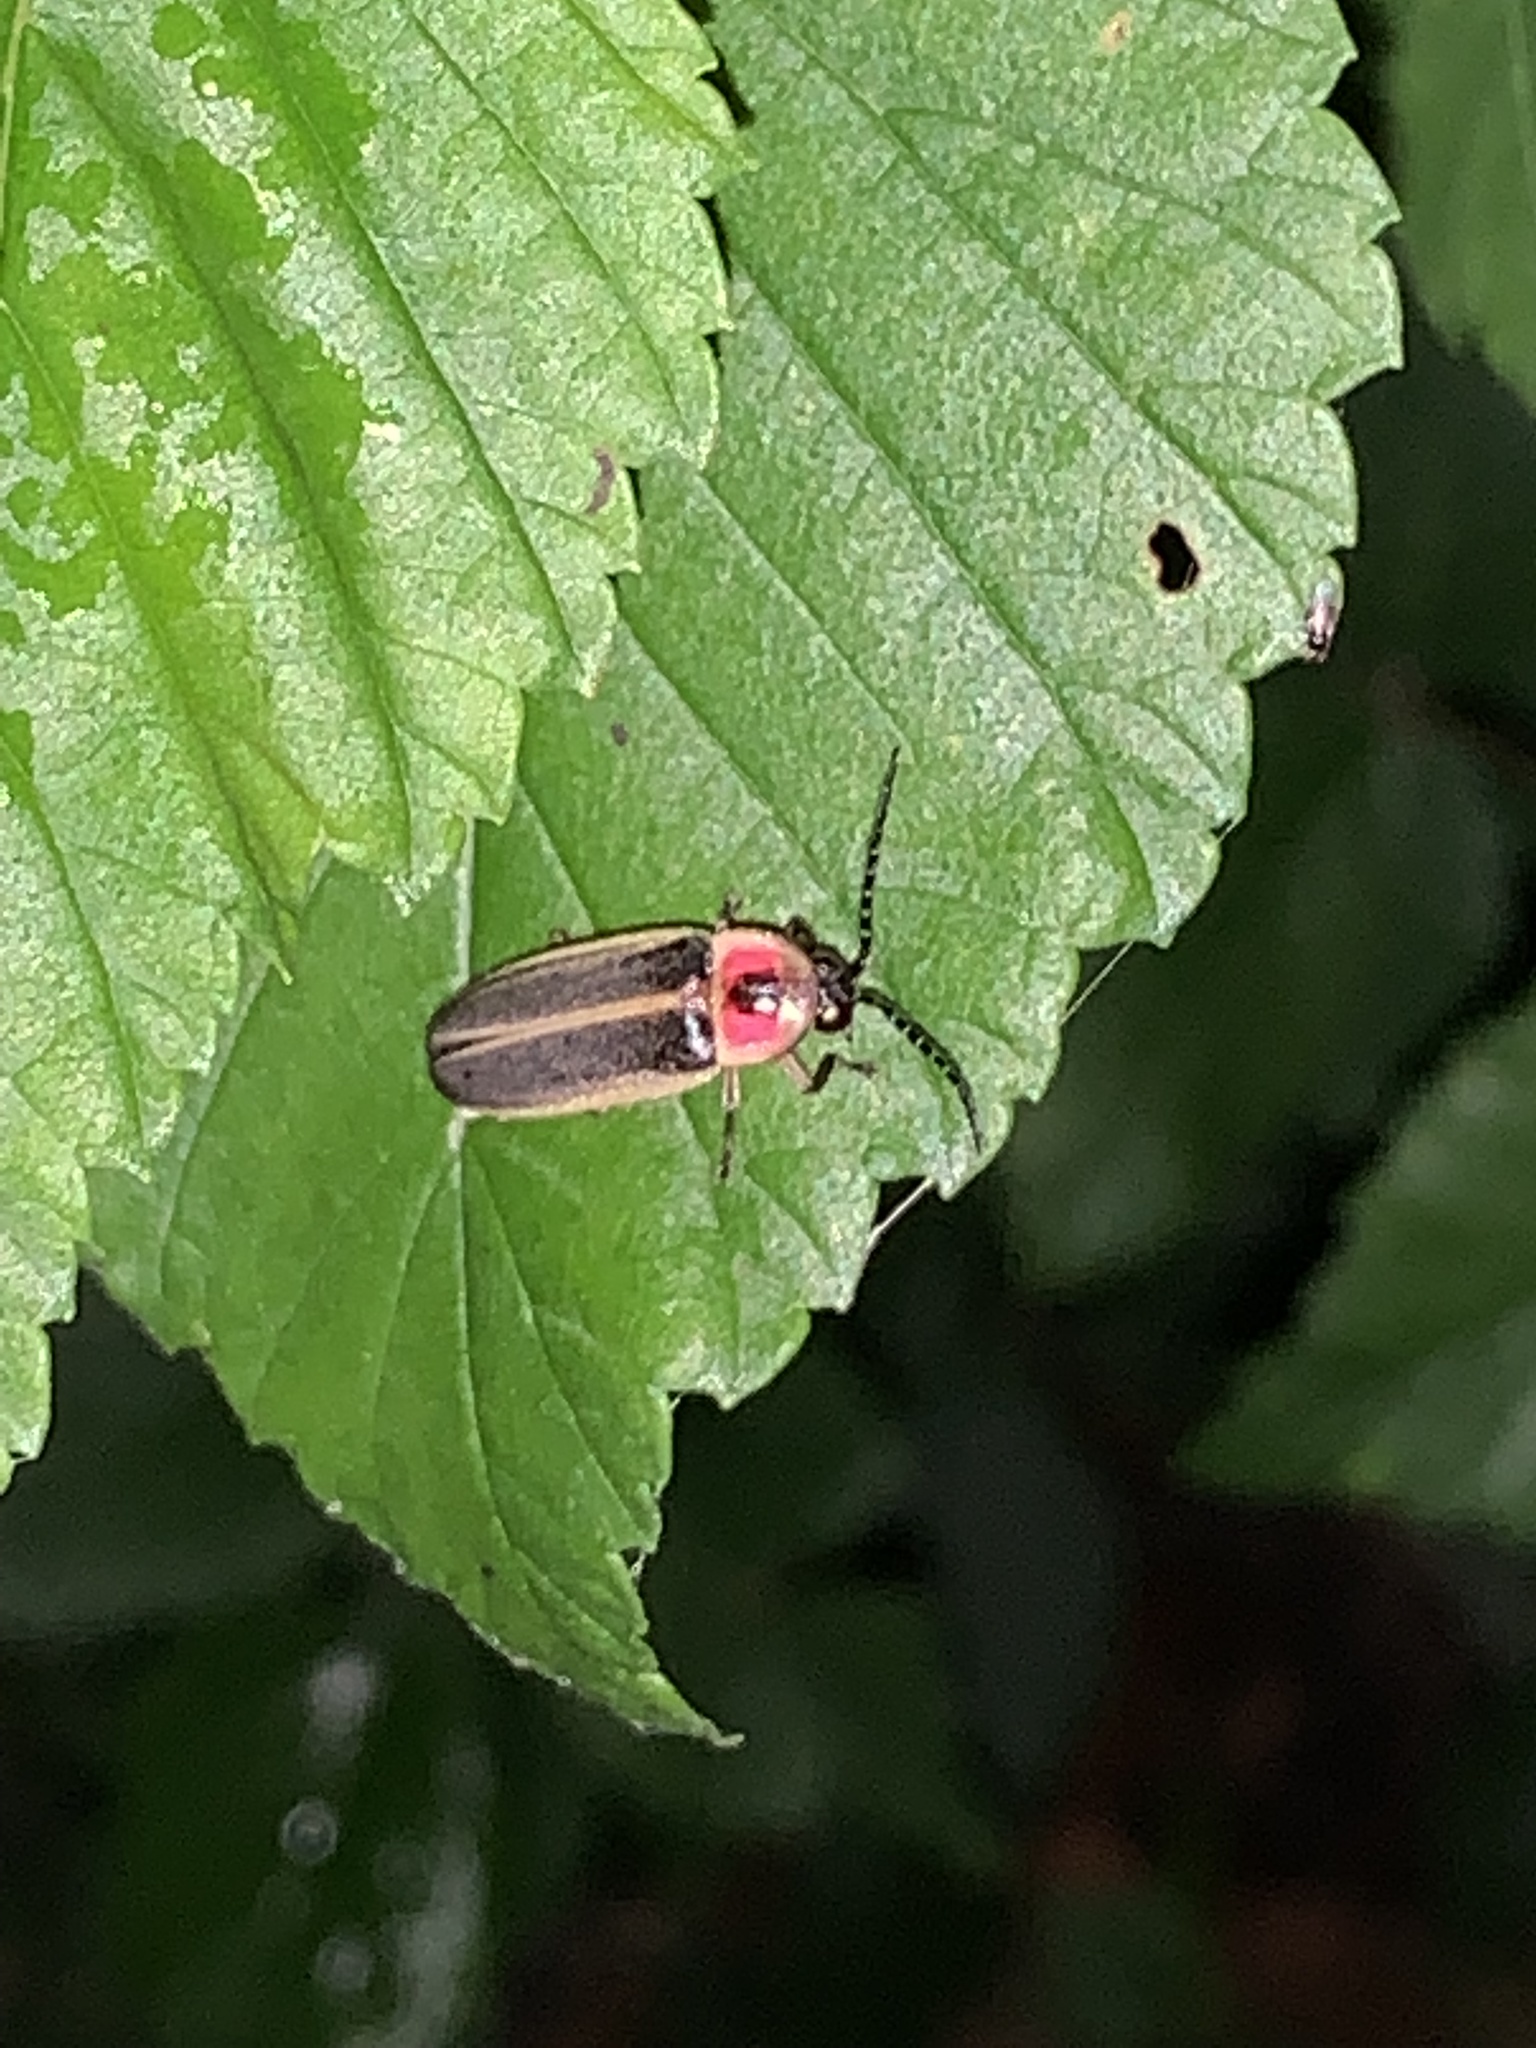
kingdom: Animalia
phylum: Arthropoda
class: Insecta
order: Coleoptera
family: Lampyridae
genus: Photinus
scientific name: Photinus pyralis
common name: Big dipper firefly
